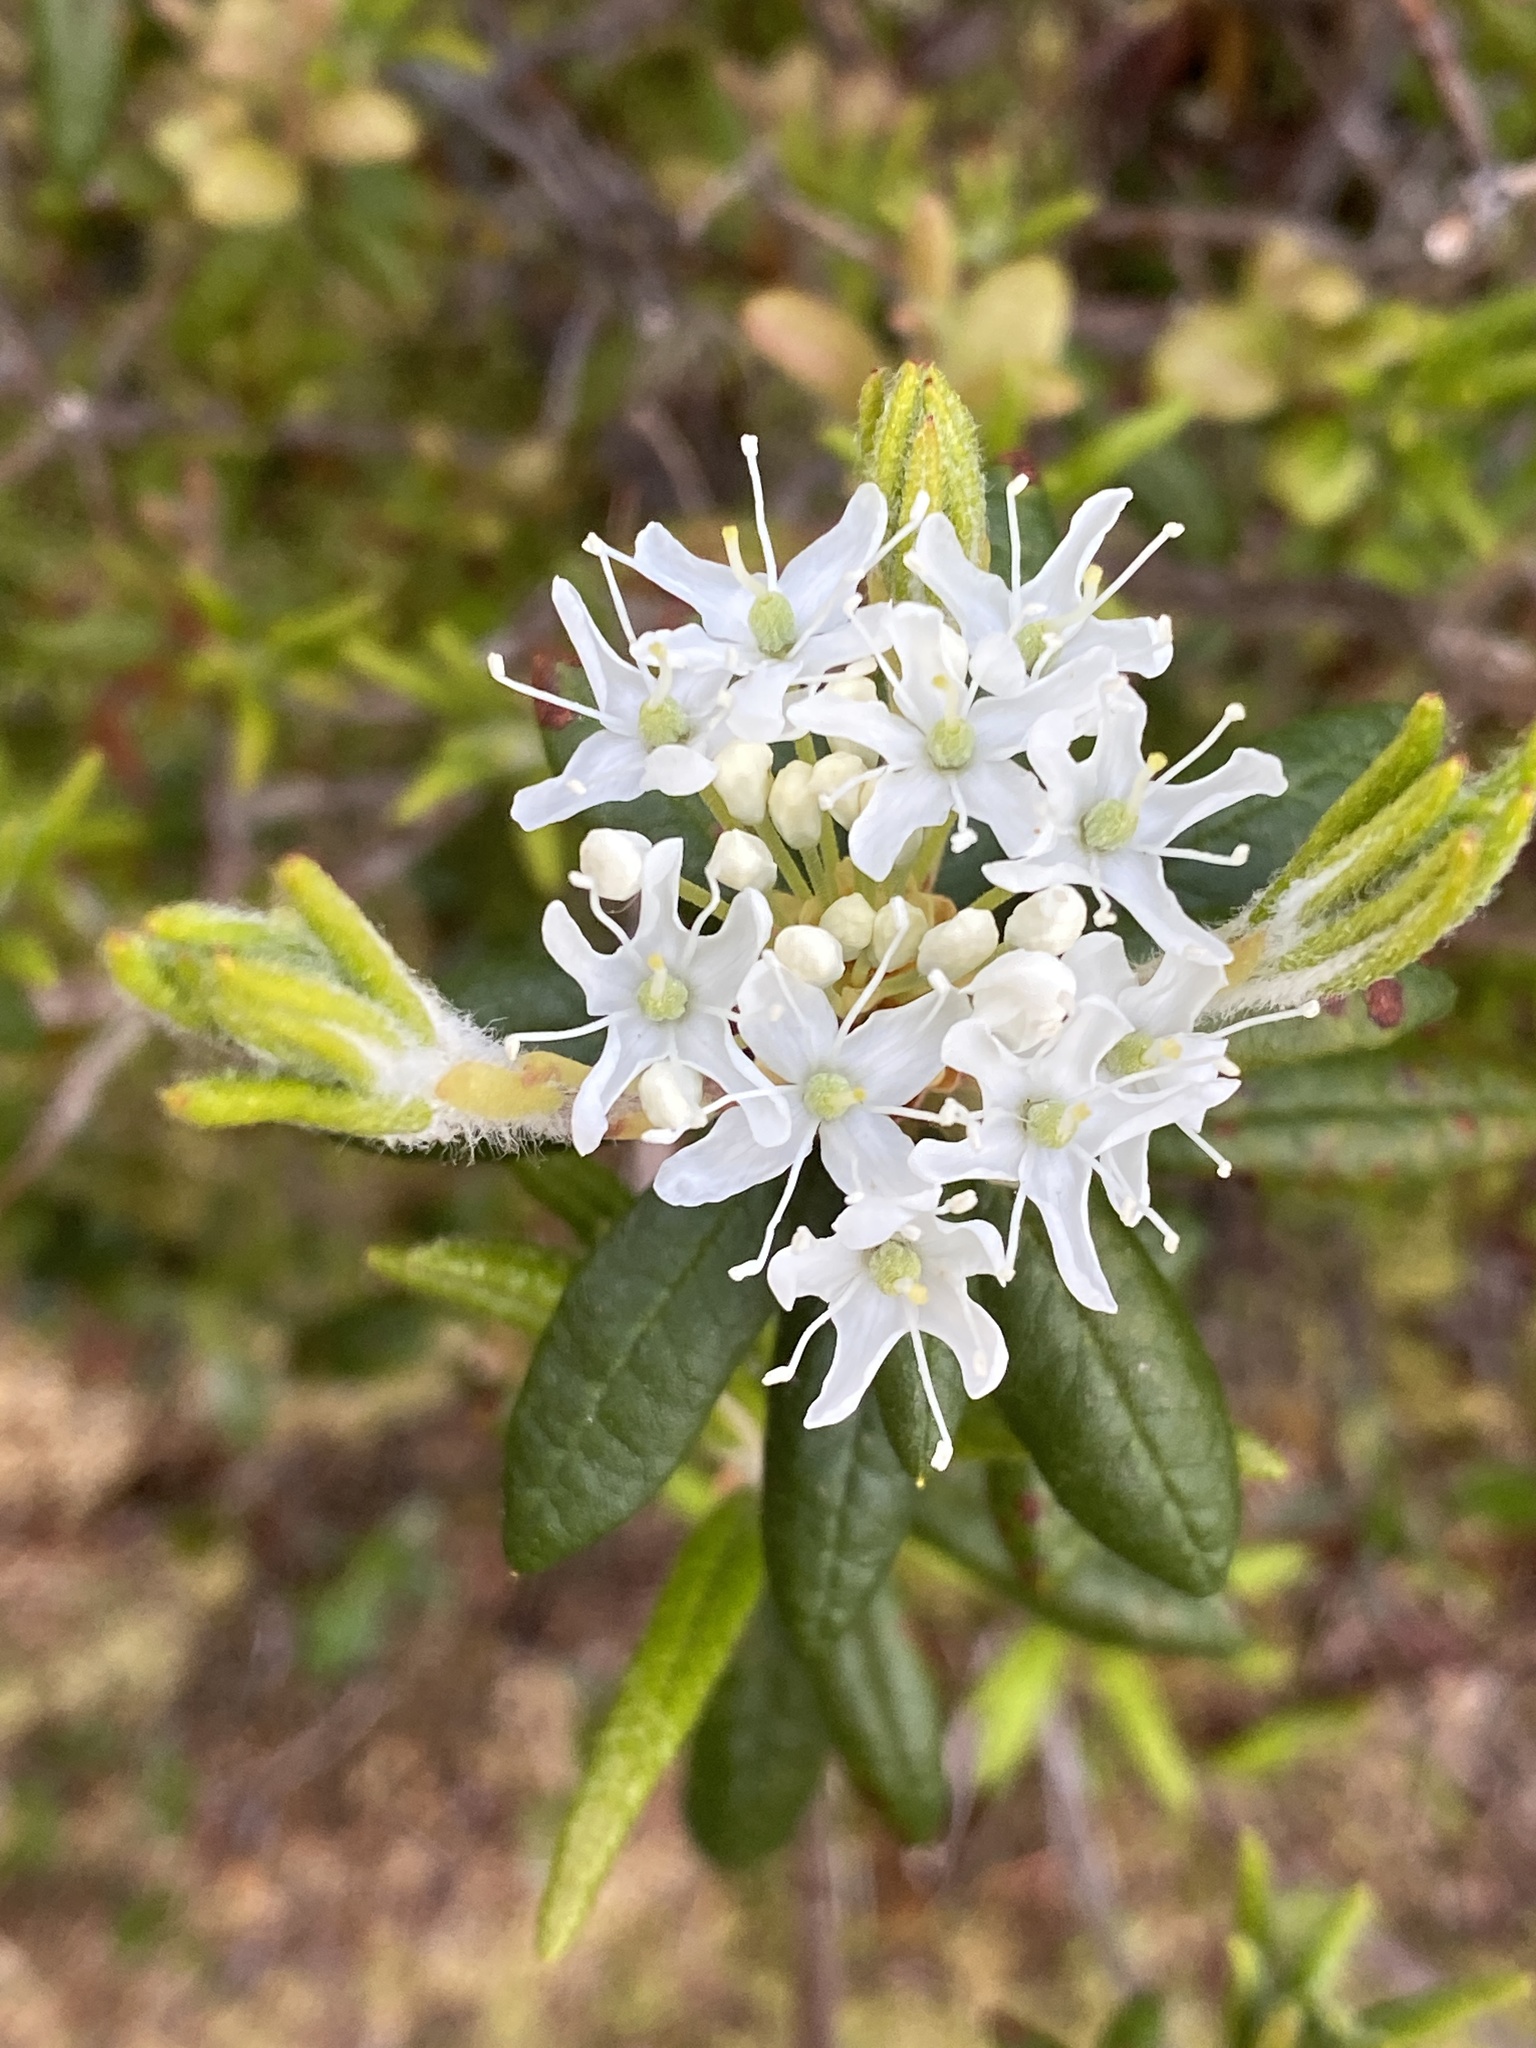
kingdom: Plantae
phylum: Tracheophyta
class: Magnoliopsida
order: Ericales
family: Ericaceae
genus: Rhododendron
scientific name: Rhododendron groenlandicum
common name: Bog labrador tea
